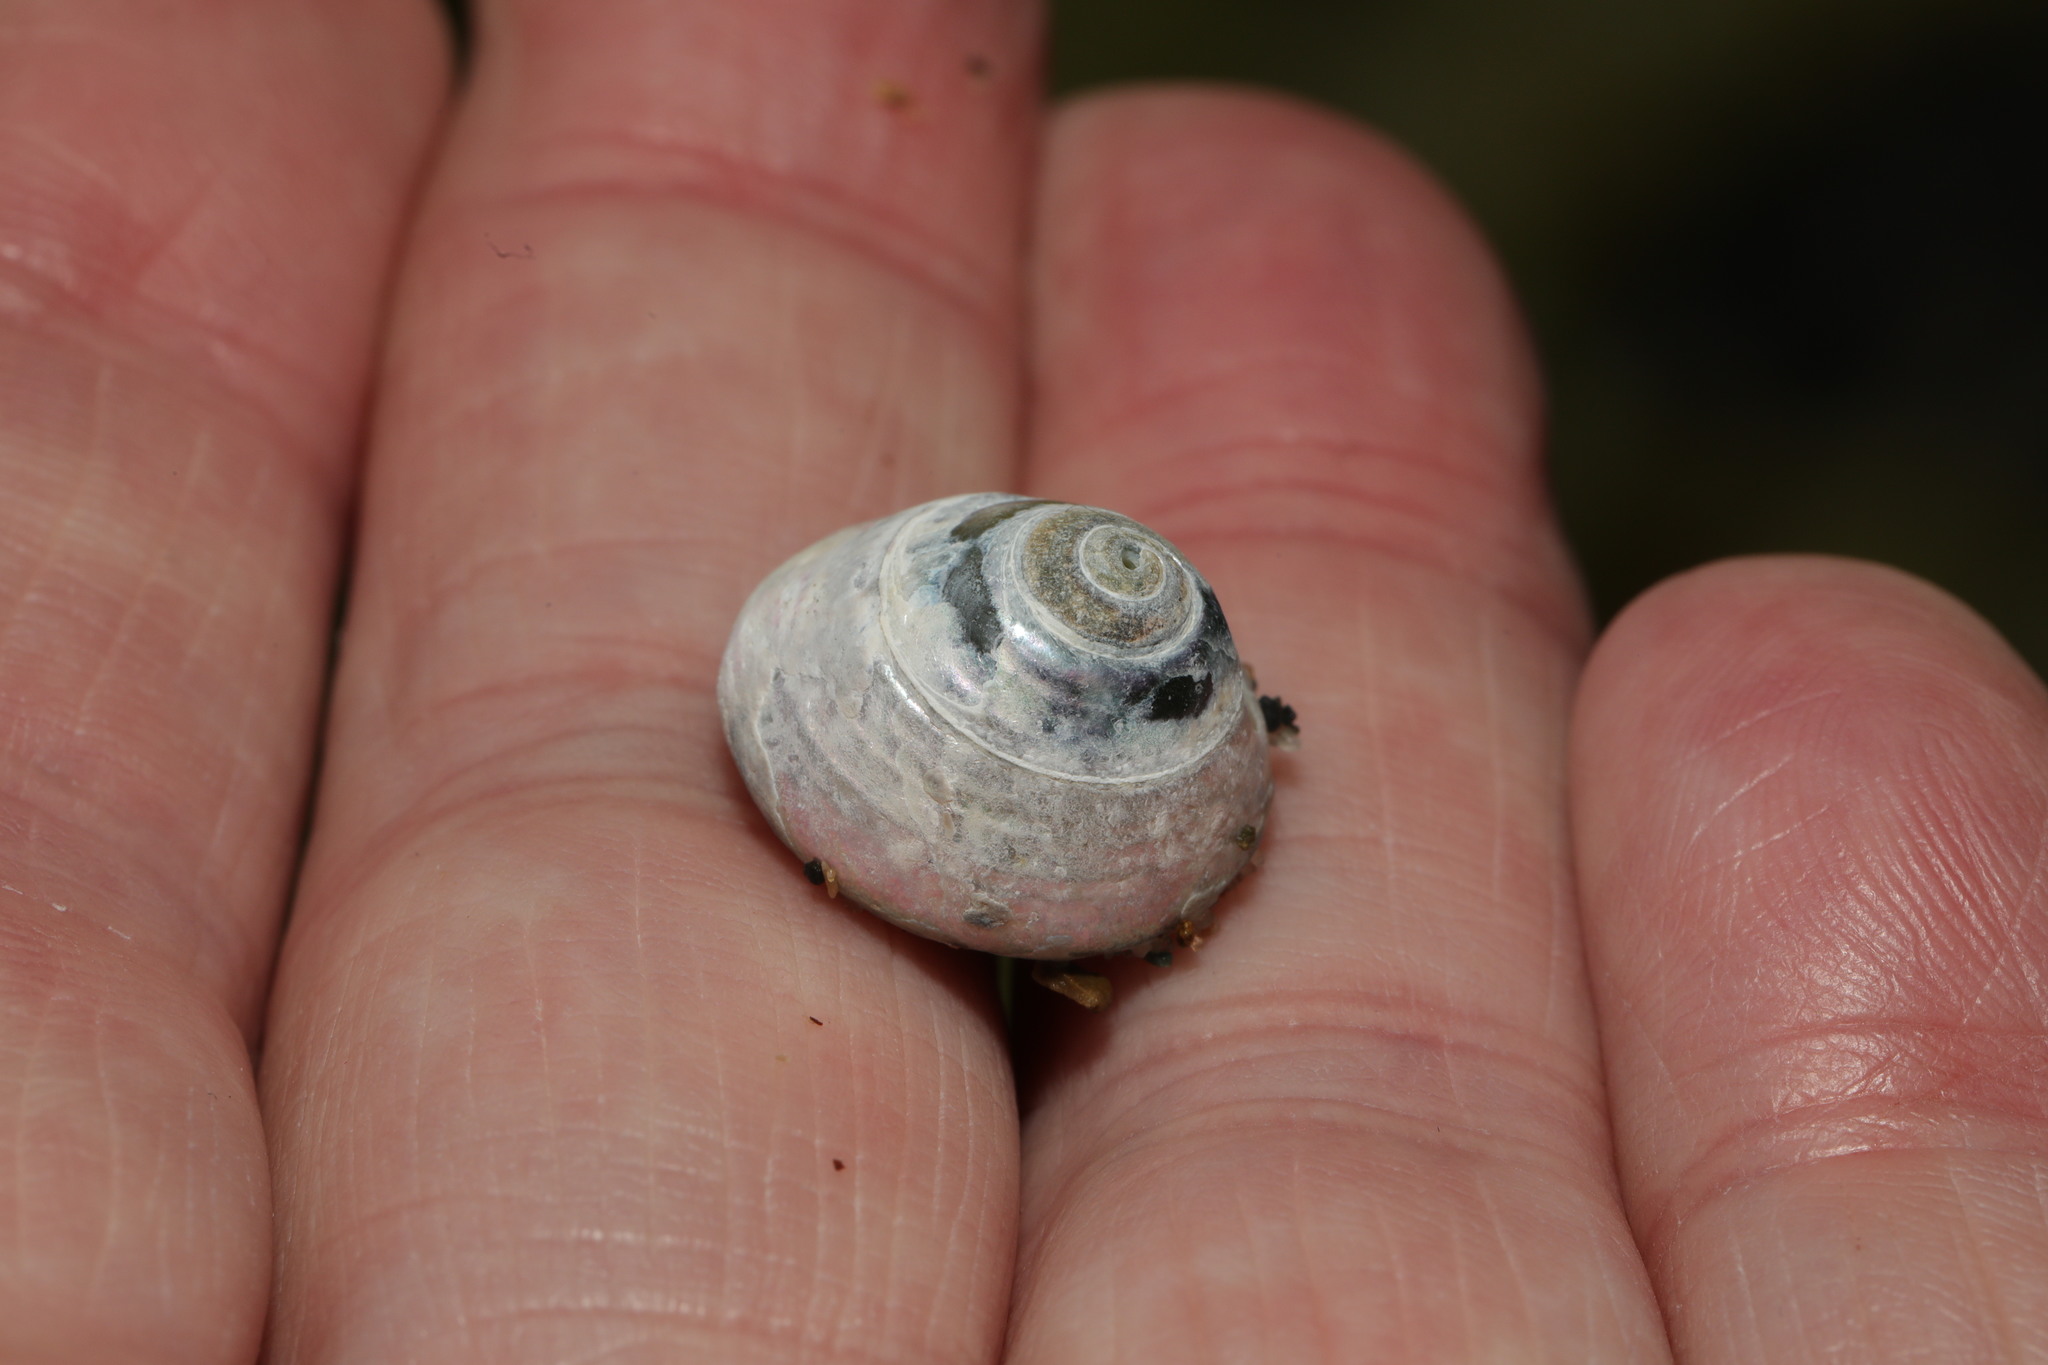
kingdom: Animalia
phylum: Mollusca
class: Gastropoda
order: Trochida
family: Trochidae
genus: Steromphala
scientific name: Steromphala umbilicalis
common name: Flat top shell
